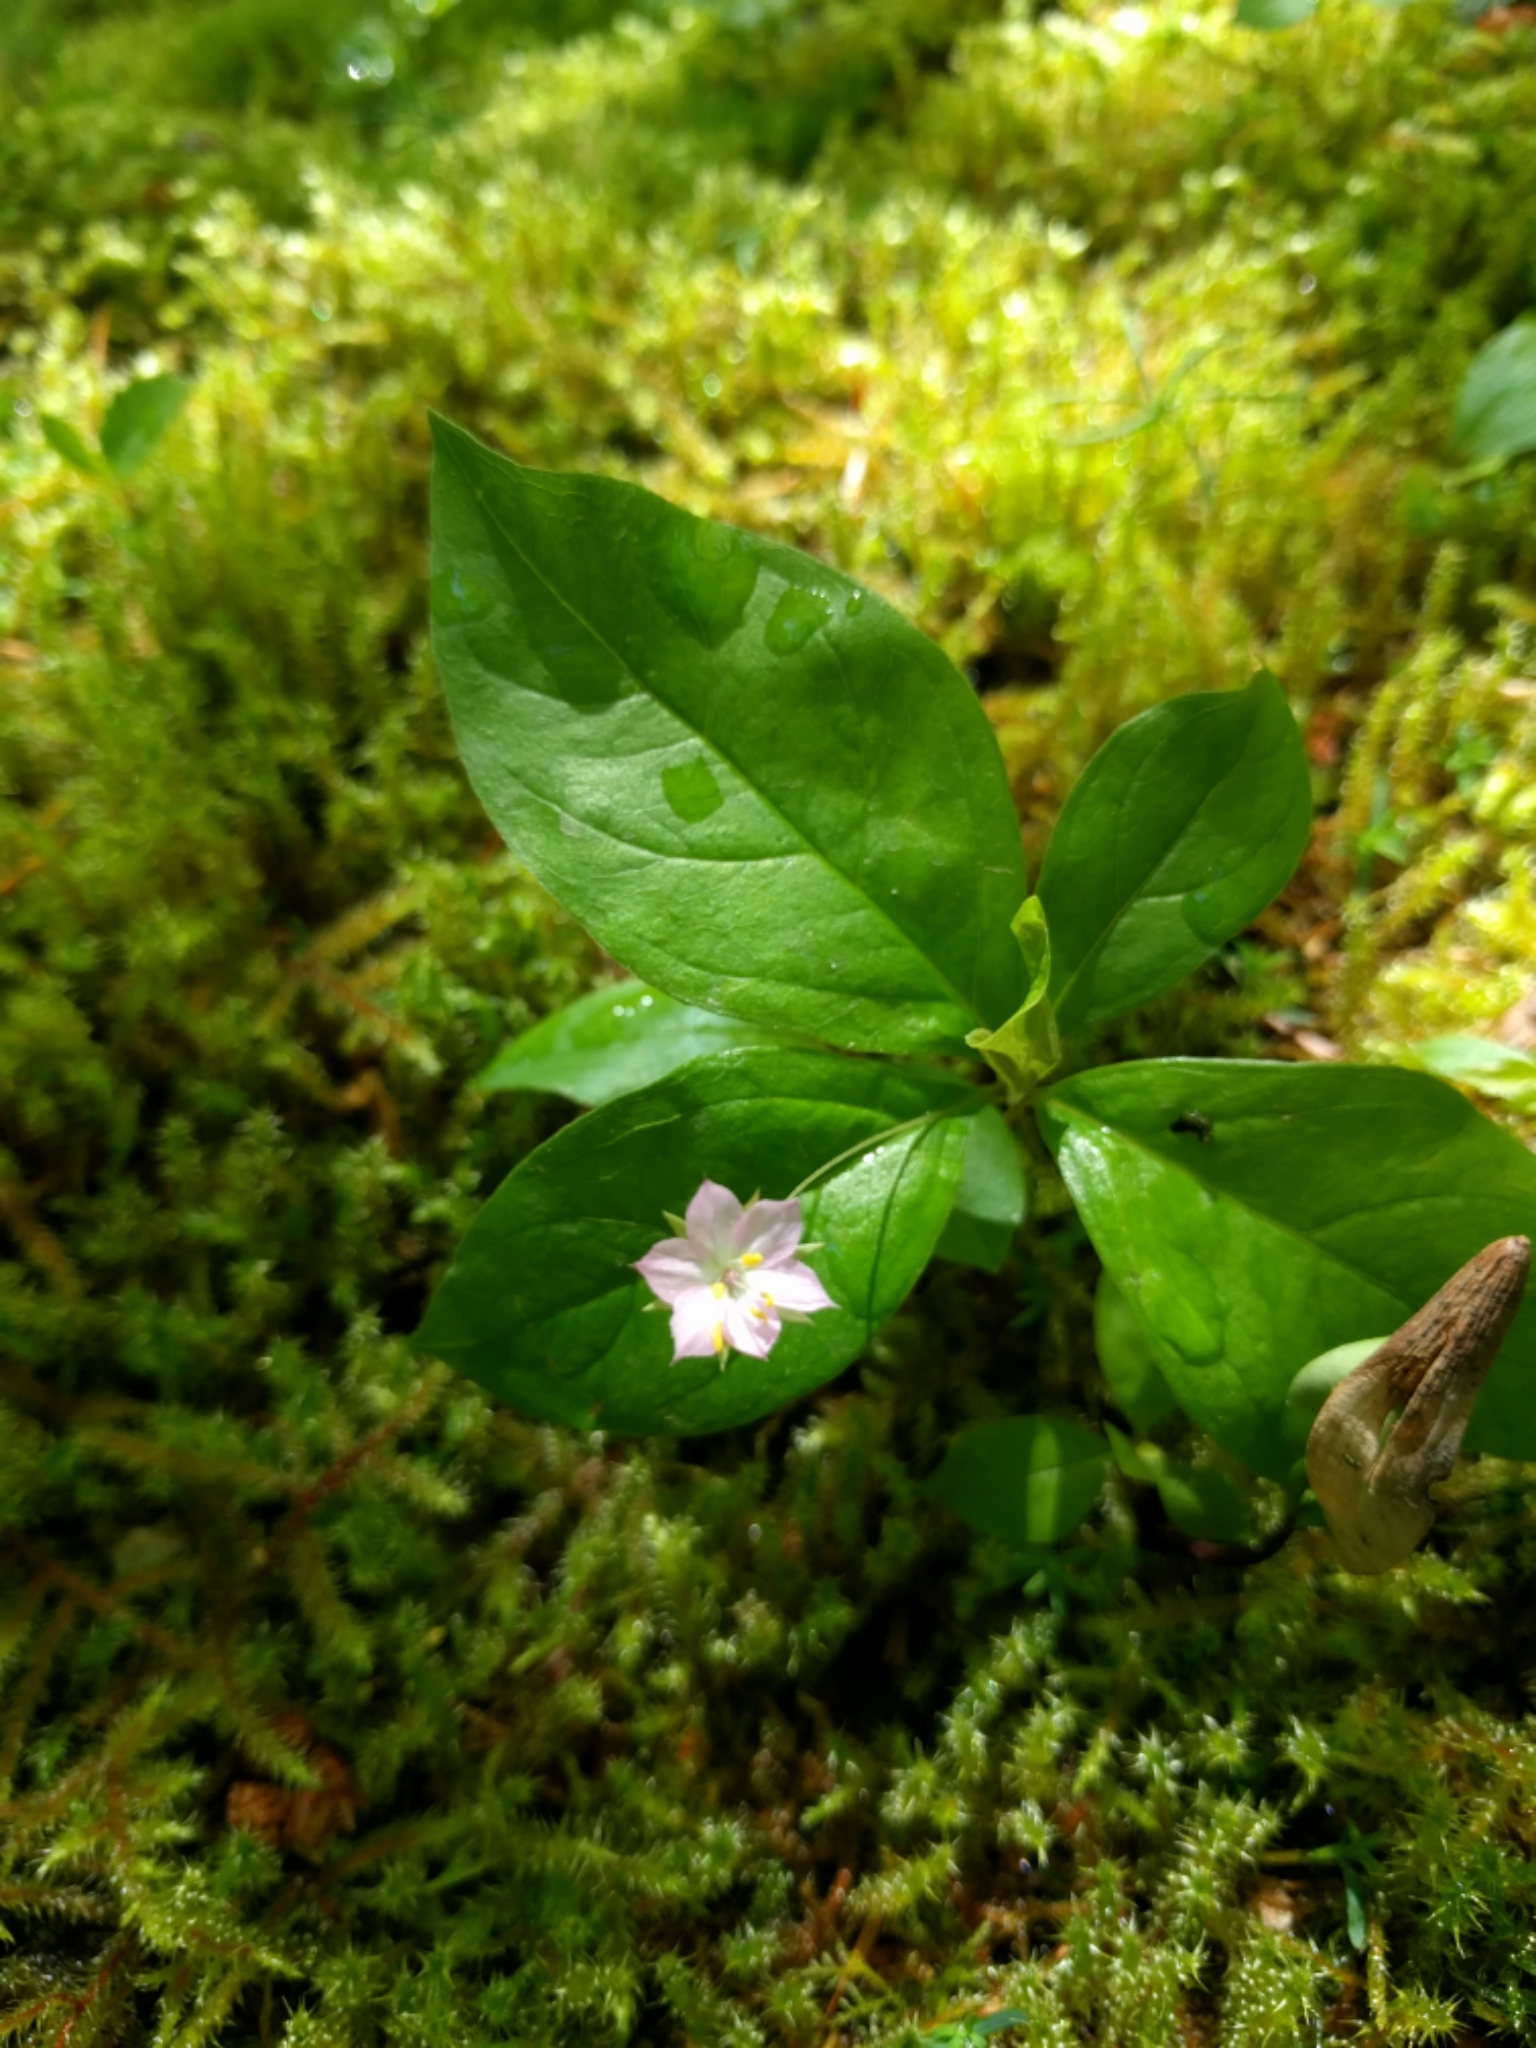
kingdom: Plantae
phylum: Tracheophyta
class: Magnoliopsida
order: Ericales
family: Primulaceae
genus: Lysimachia
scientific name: Lysimachia latifolia
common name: Pacific starflower
